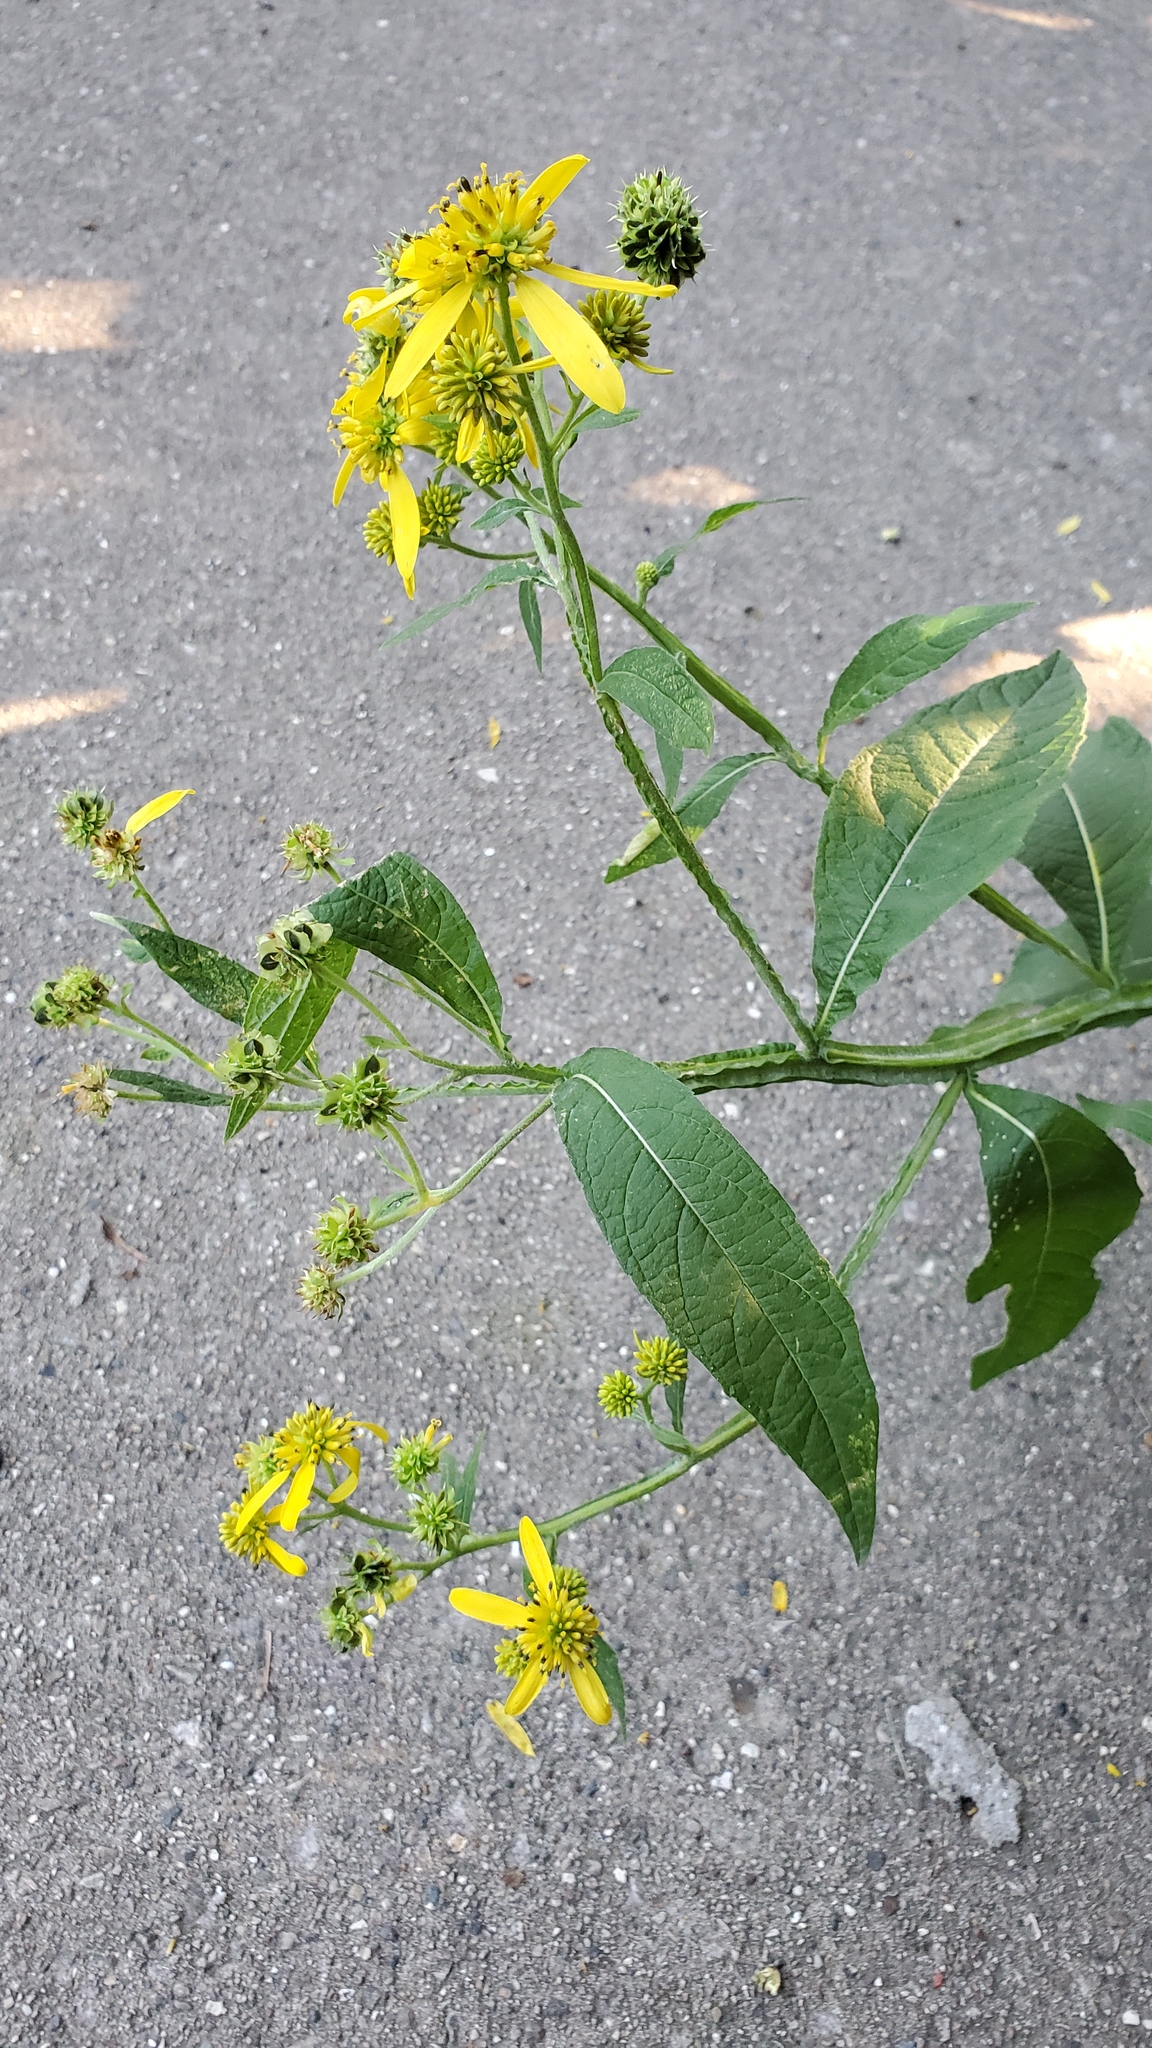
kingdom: Plantae
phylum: Tracheophyta
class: Magnoliopsida
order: Asterales
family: Asteraceae
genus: Verbesina
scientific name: Verbesina alternifolia
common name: Wingstem
